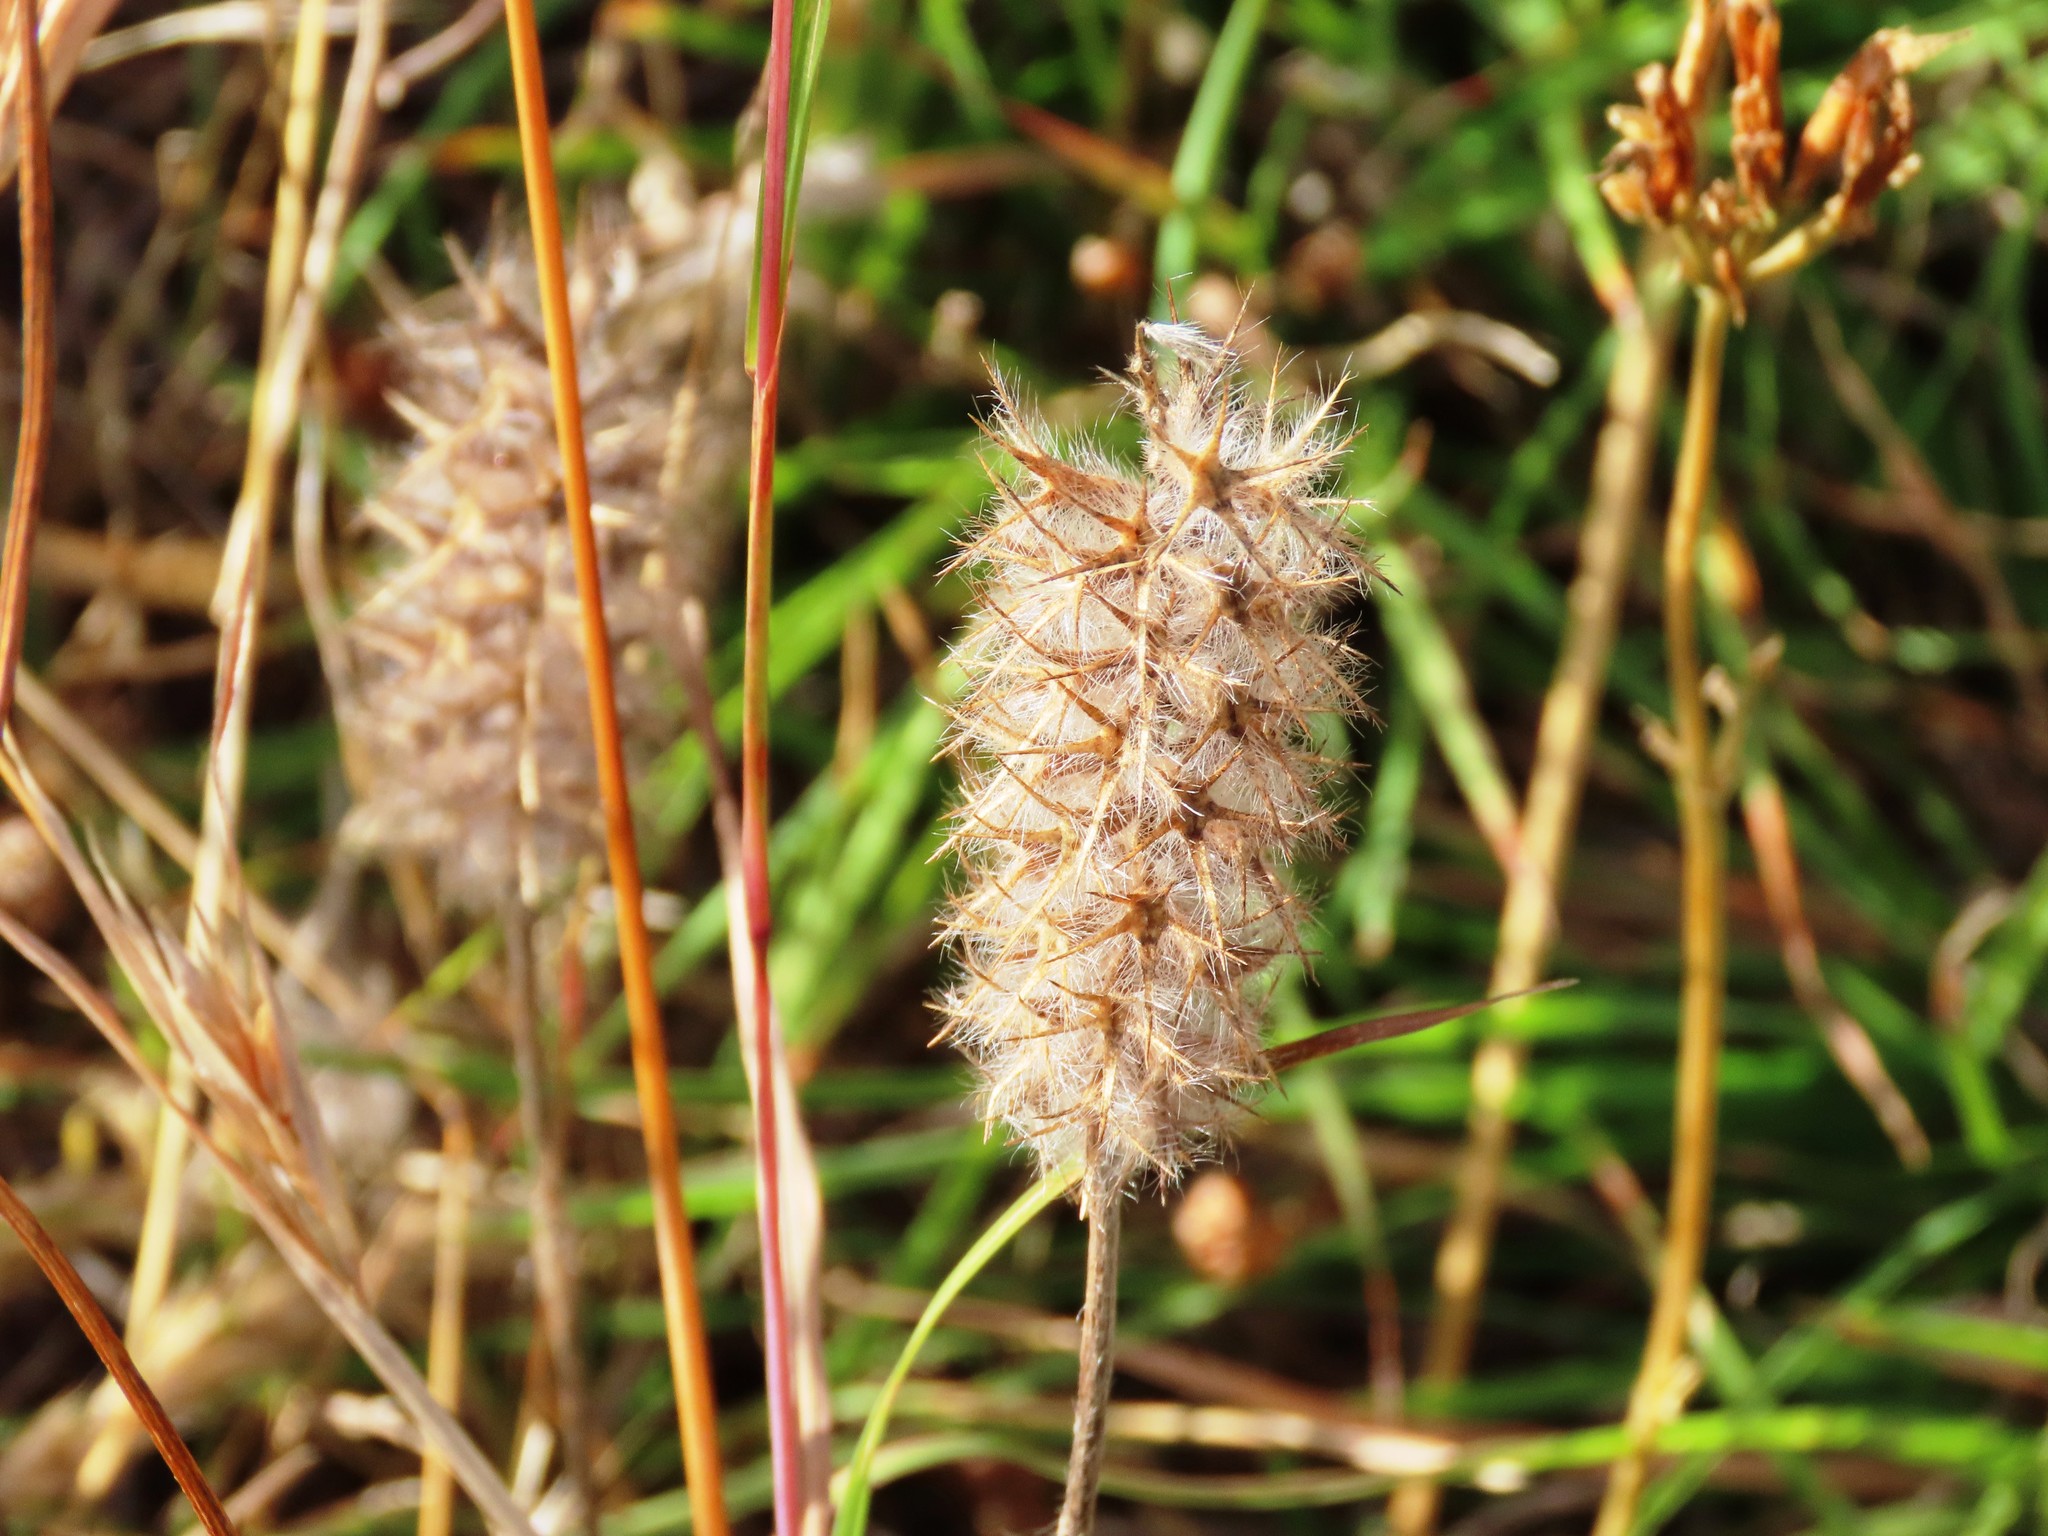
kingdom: Plantae
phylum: Tracheophyta
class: Magnoliopsida
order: Fabales
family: Fabaceae
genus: Trifolium
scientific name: Trifolium angustifolium
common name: Narrow clover
